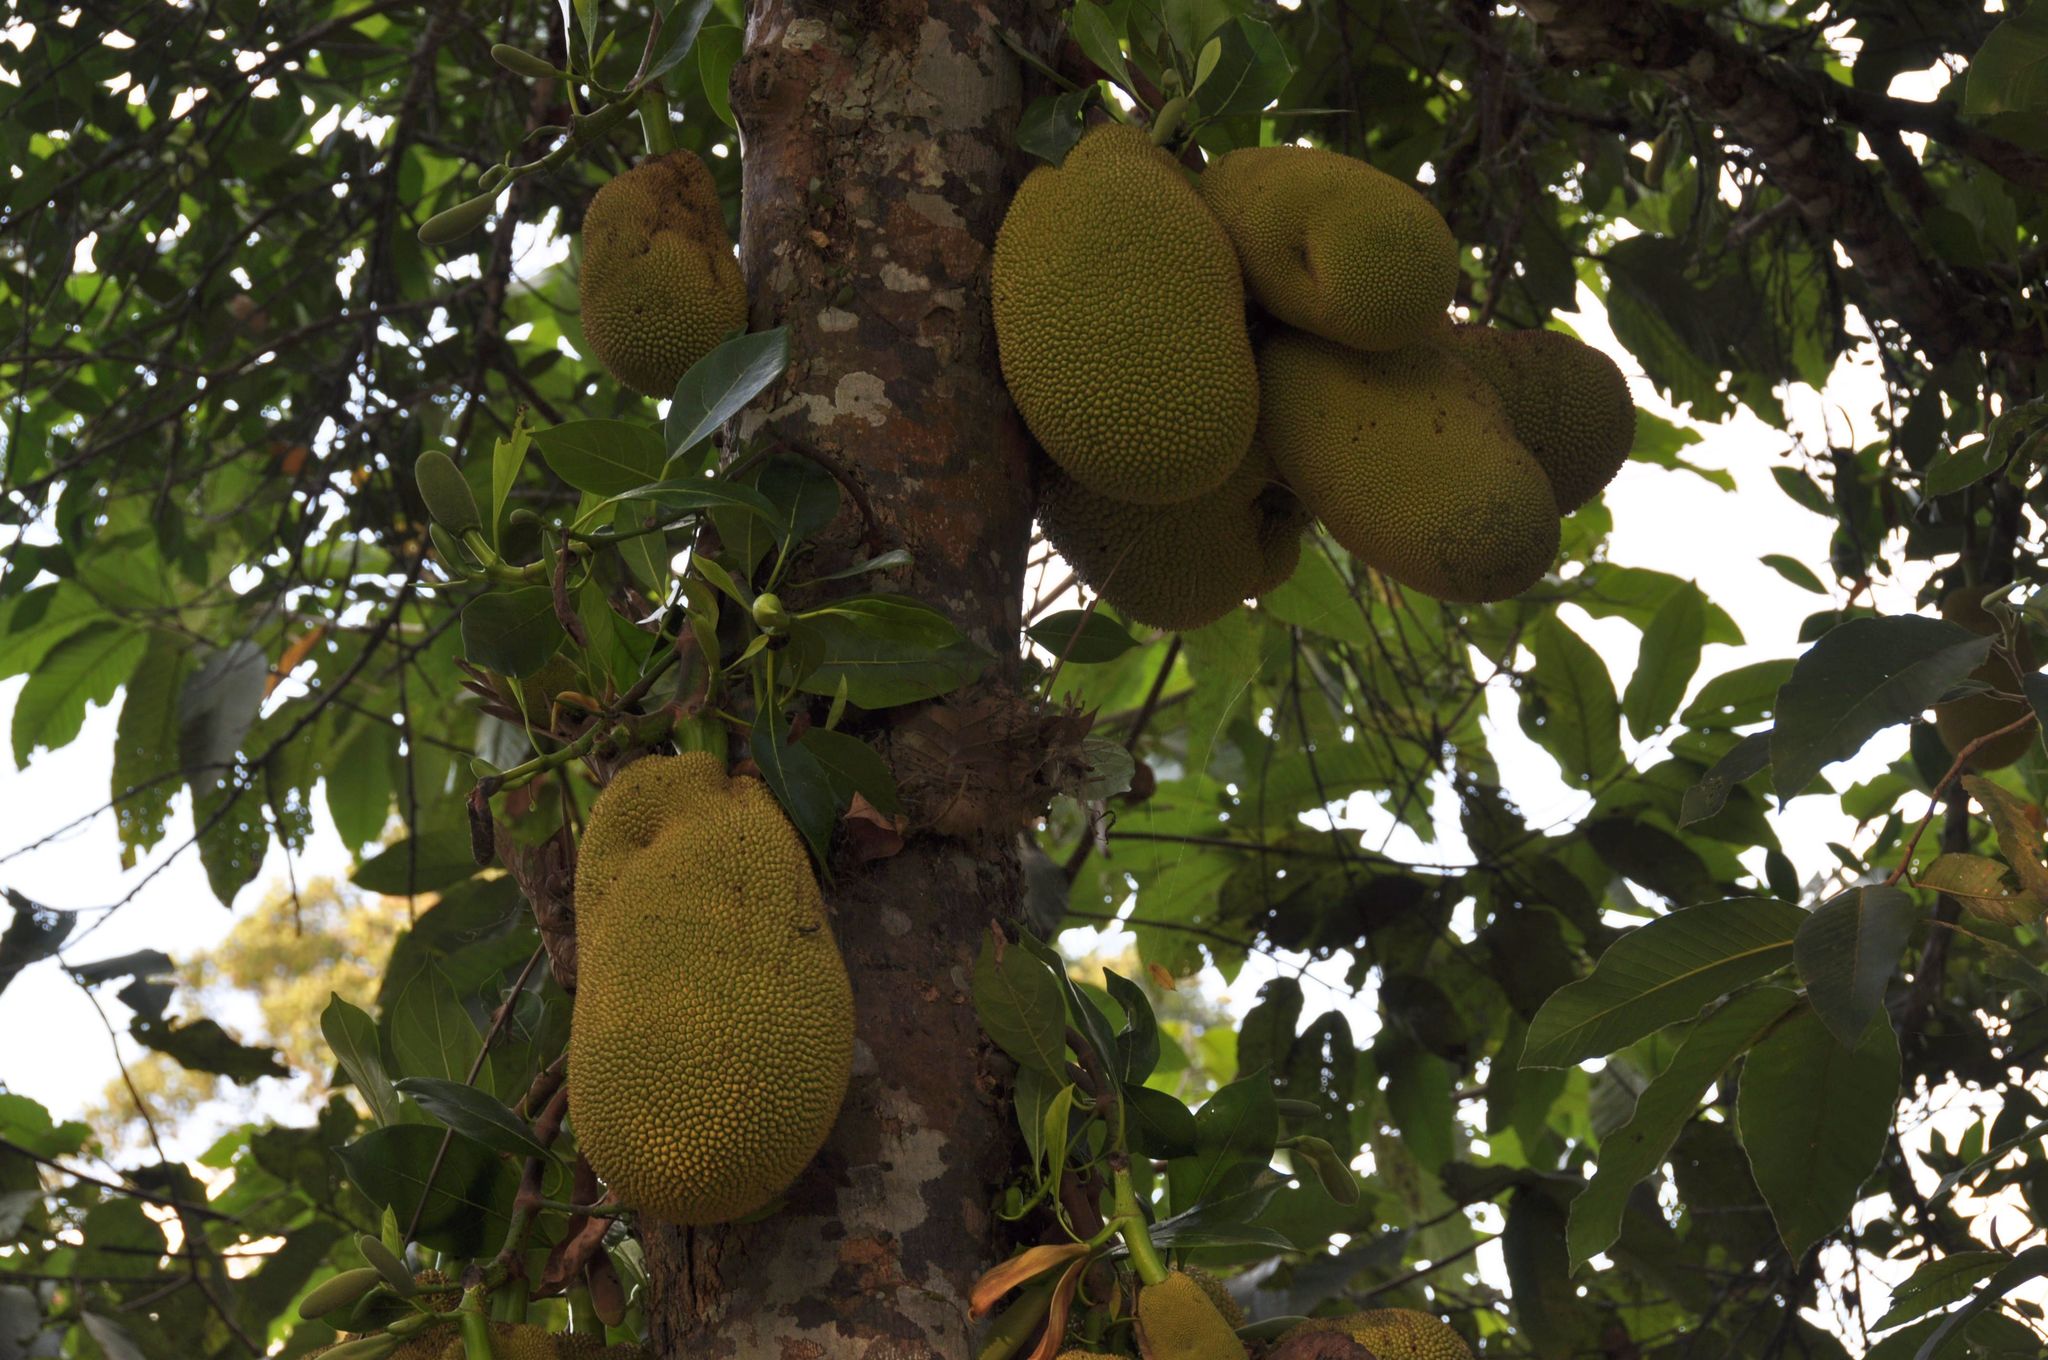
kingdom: Plantae
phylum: Tracheophyta
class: Magnoliopsida
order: Rosales
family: Moraceae
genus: Artocarpus
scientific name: Artocarpus heterophyllus
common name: Jackfruit
